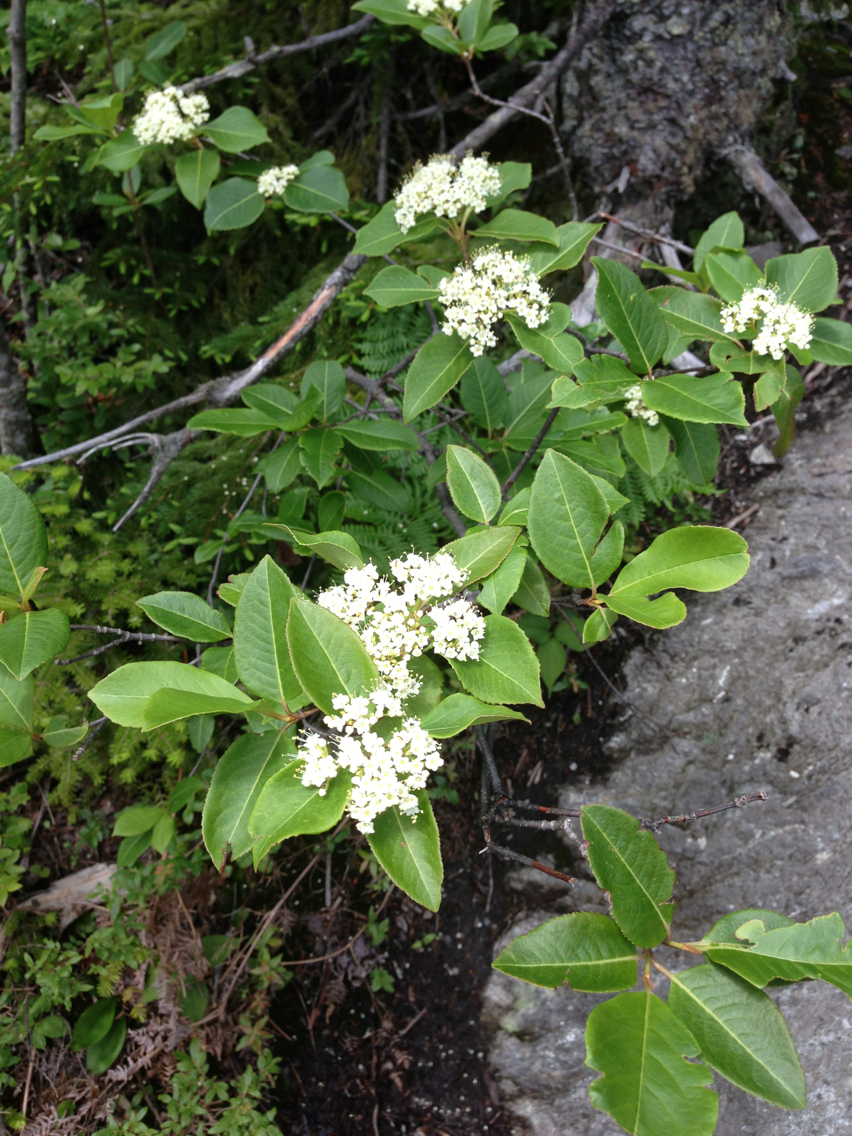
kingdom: Plantae
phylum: Tracheophyta
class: Magnoliopsida
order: Dipsacales
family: Viburnaceae
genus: Viburnum
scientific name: Viburnum cassinoides
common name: Swamp haw
